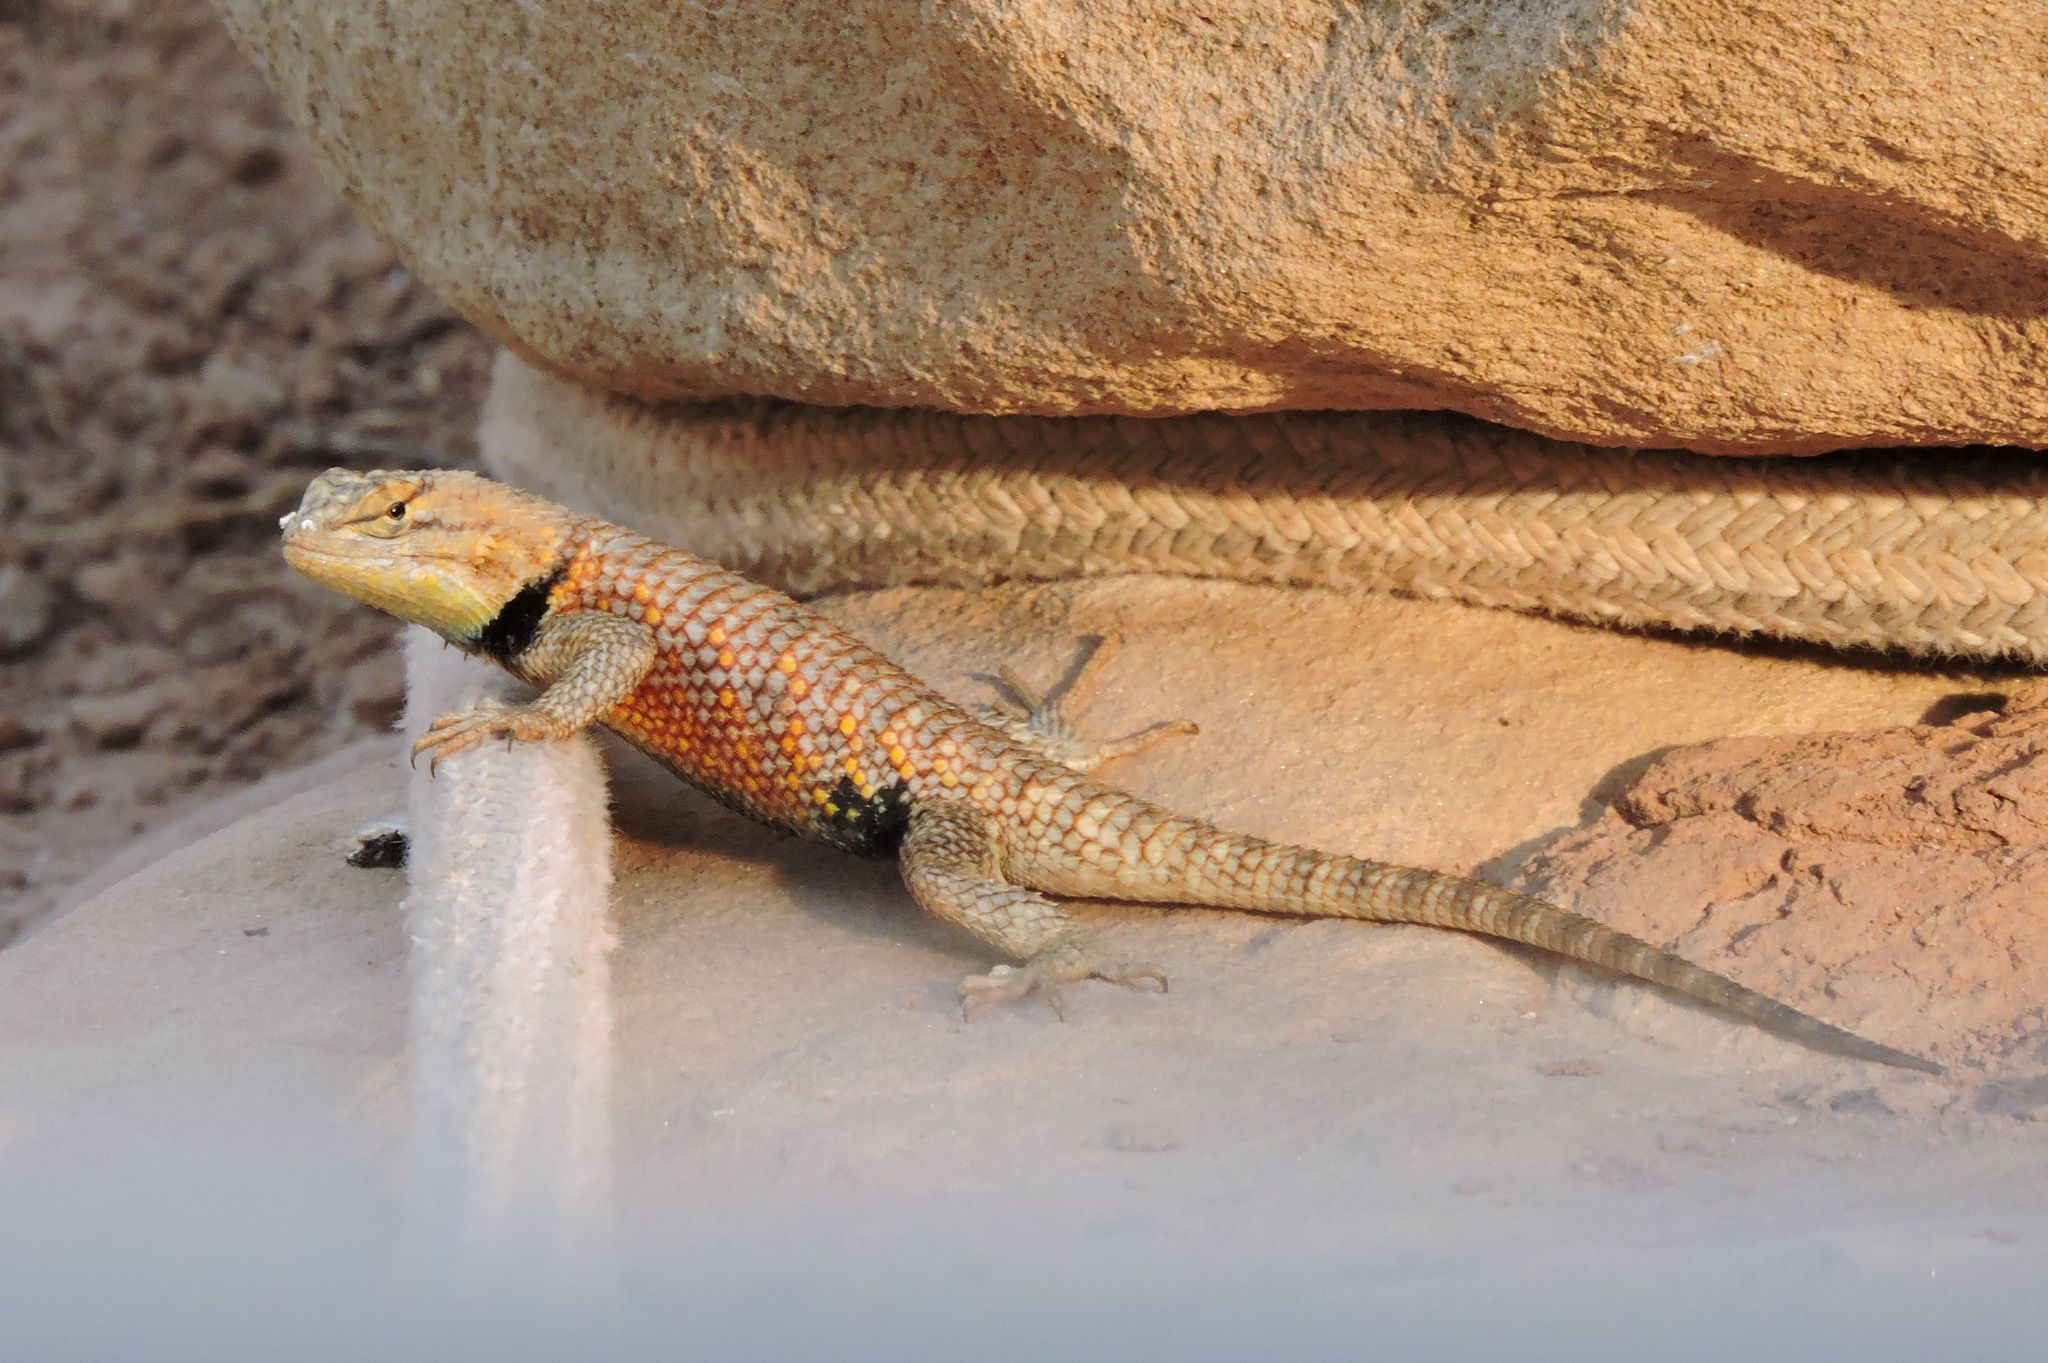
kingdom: Animalia
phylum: Chordata
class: Squamata
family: Phrynosomatidae
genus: Sceloporus
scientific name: Sceloporus magister
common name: Desert spiny lizard
